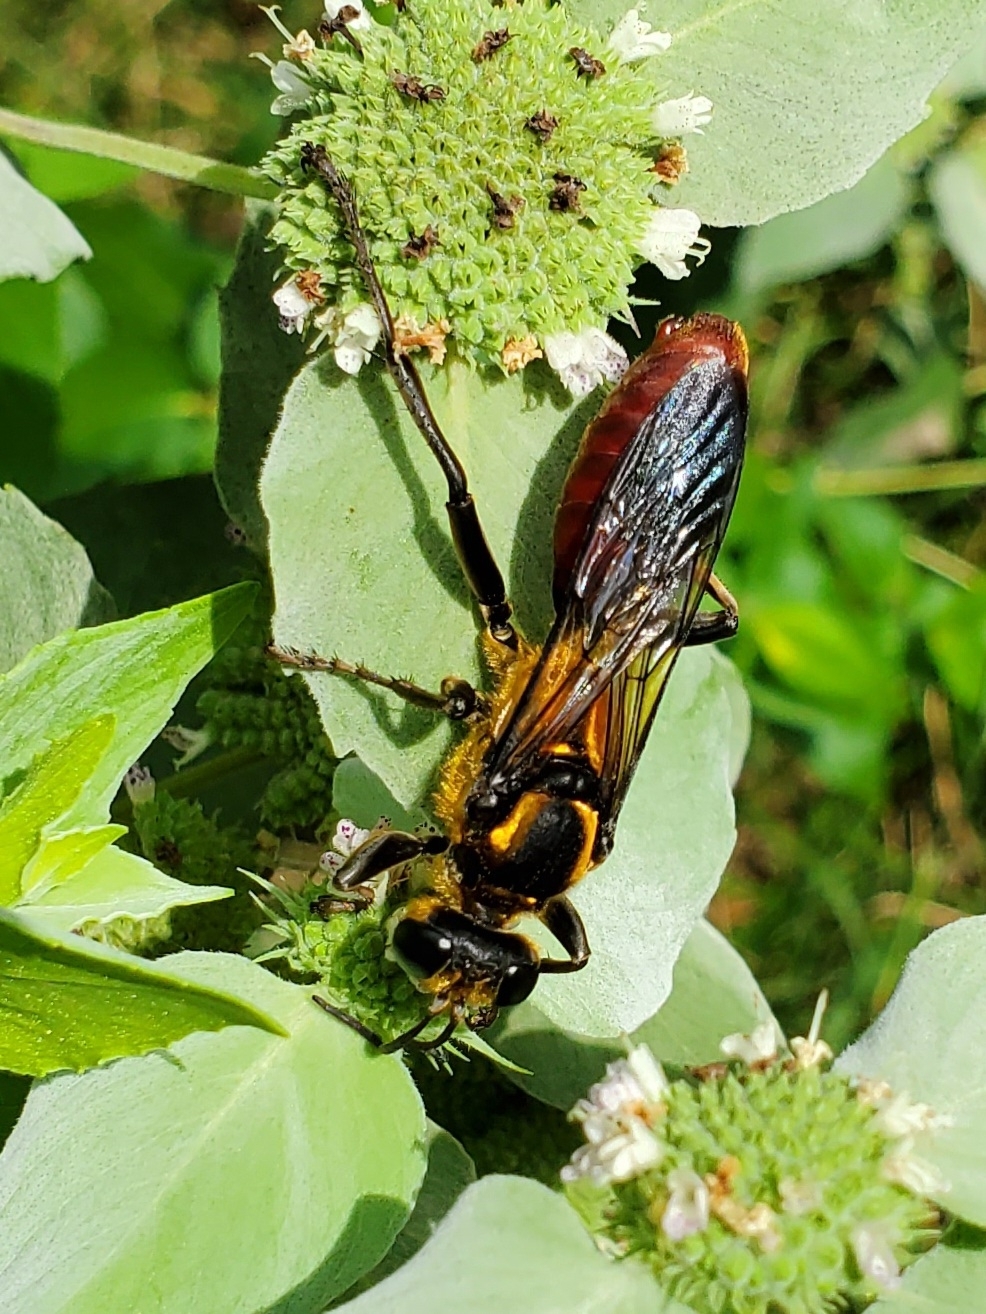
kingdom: Animalia
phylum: Arthropoda
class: Insecta
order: Hymenoptera
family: Sphecidae
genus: Sphex
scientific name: Sphex habenus
